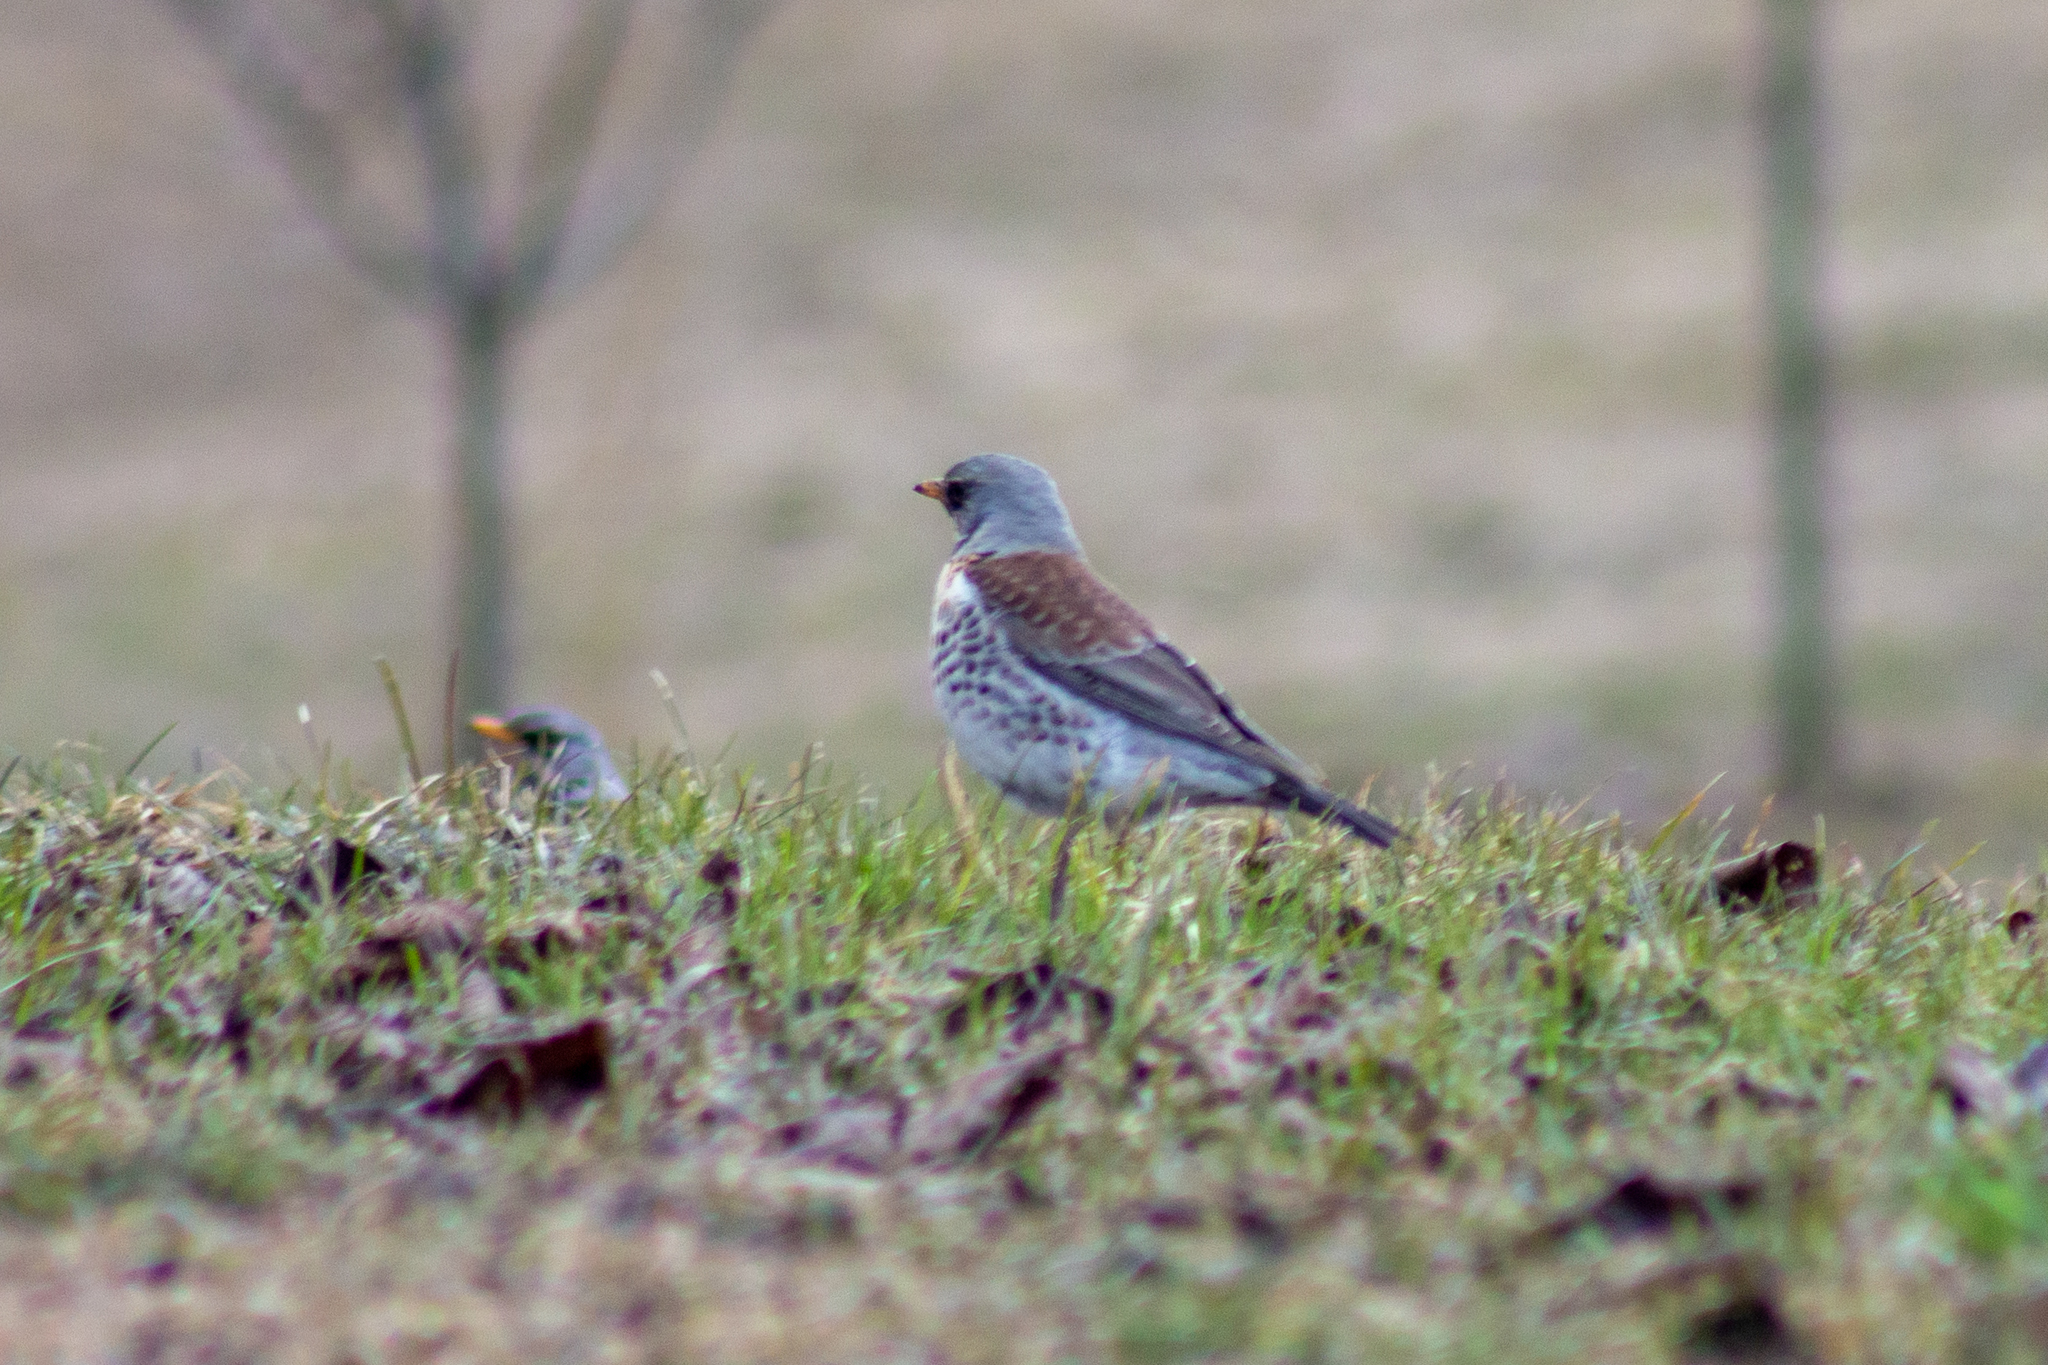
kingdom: Animalia
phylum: Chordata
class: Aves
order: Passeriformes
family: Turdidae
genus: Turdus
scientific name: Turdus pilaris
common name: Fieldfare
